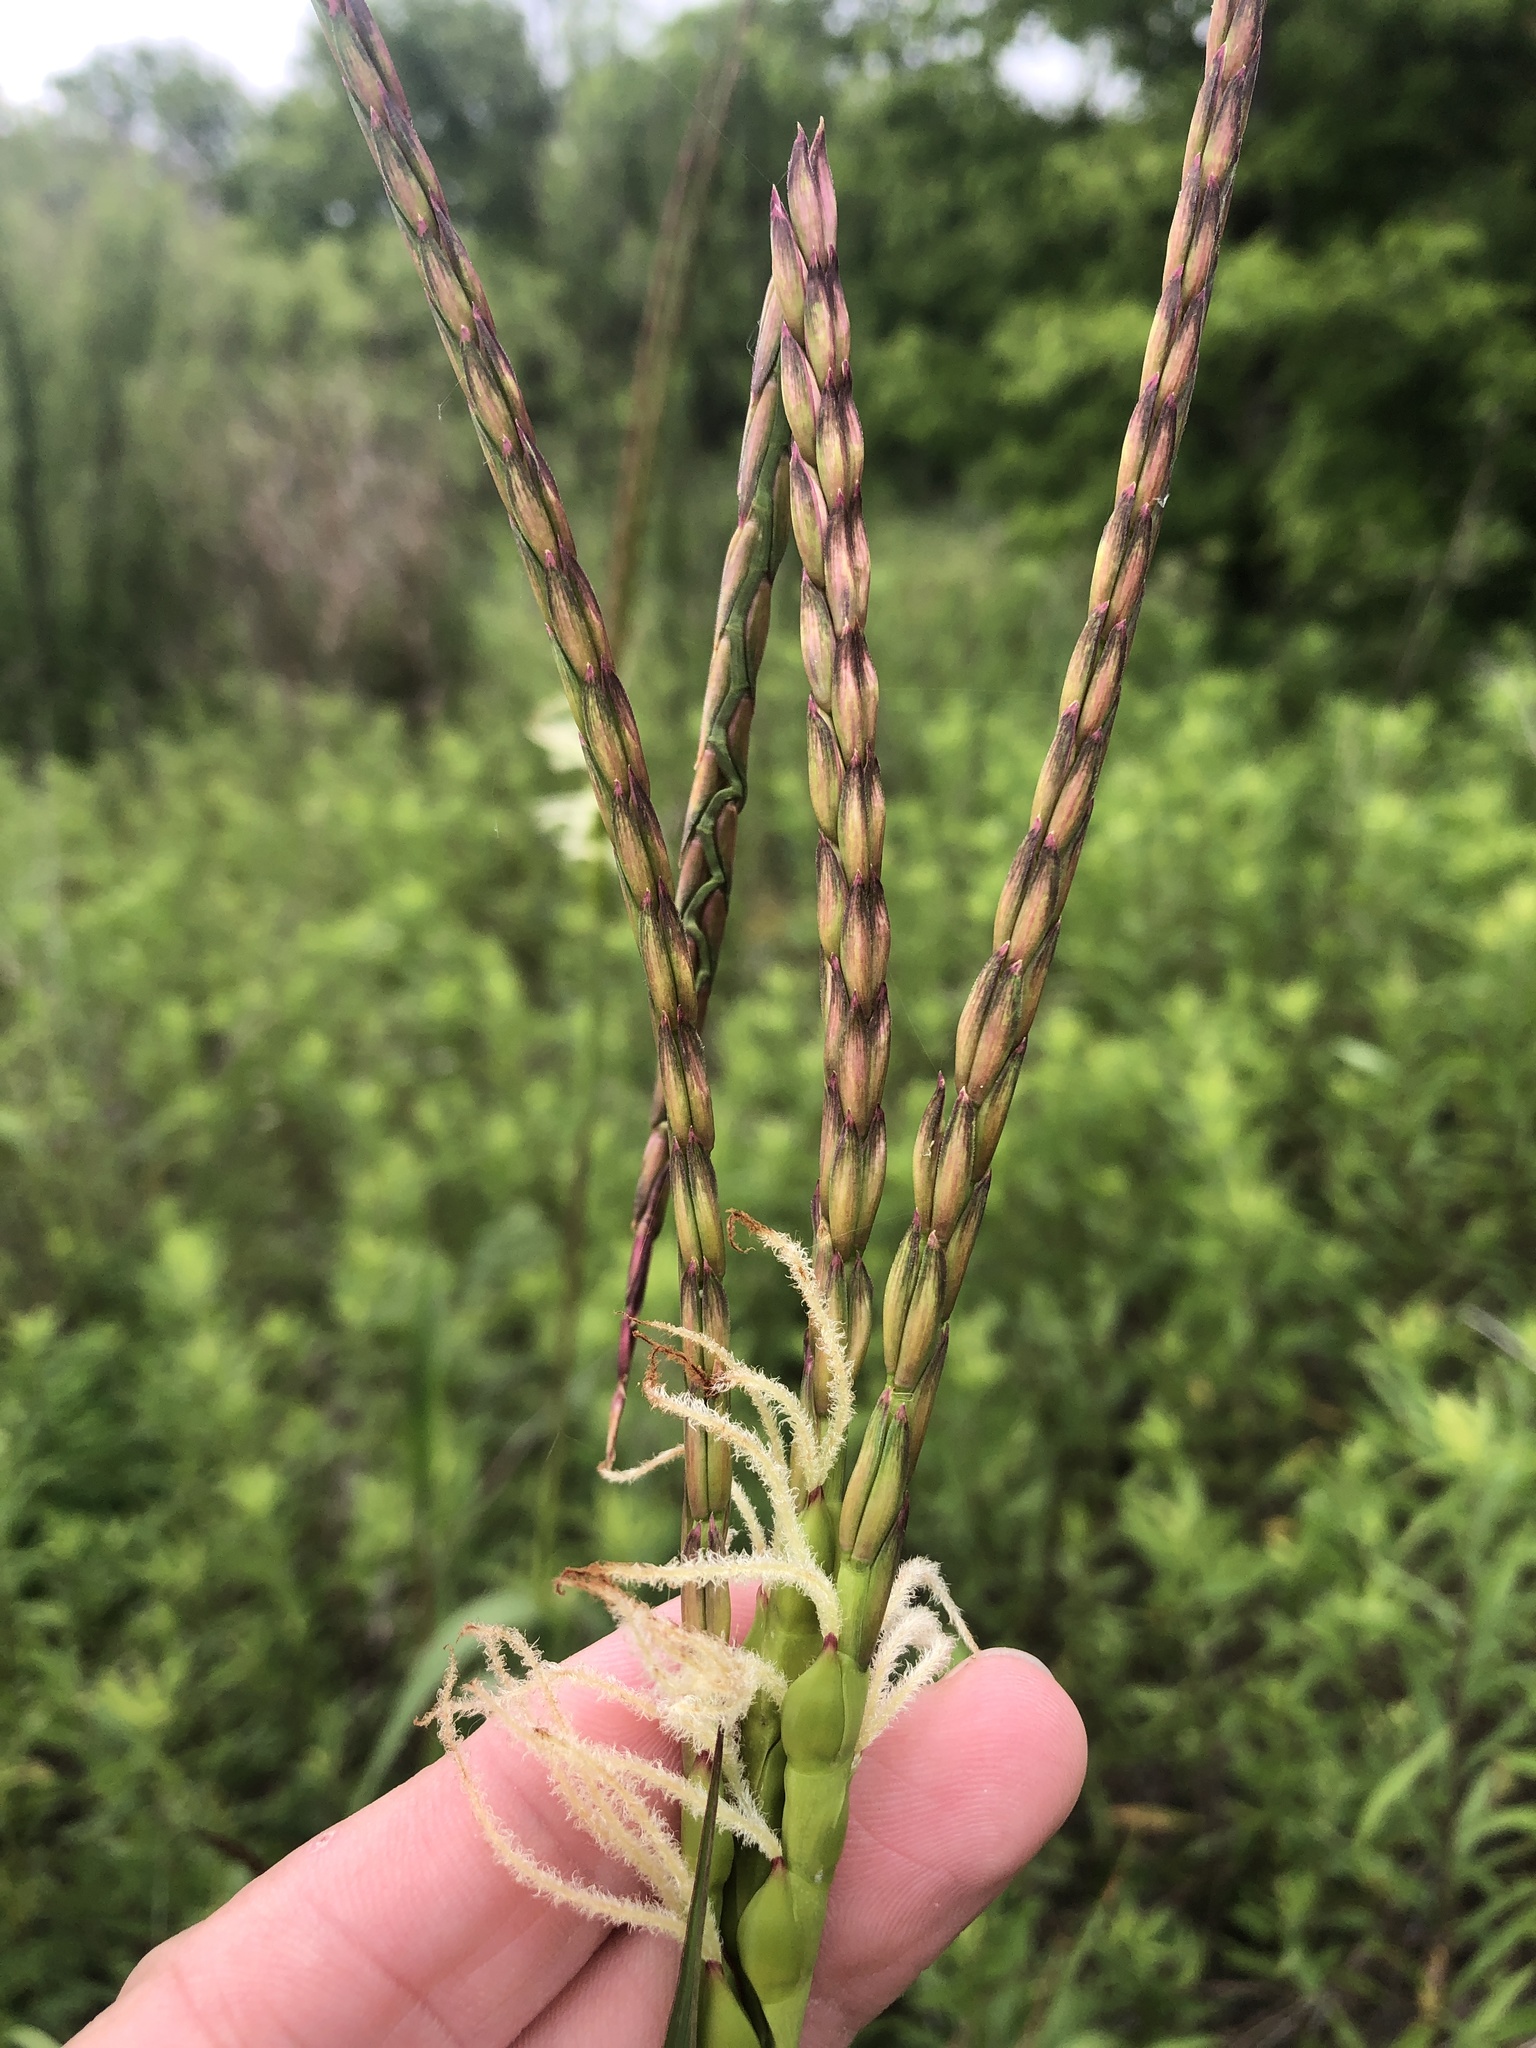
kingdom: Plantae
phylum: Tracheophyta
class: Liliopsida
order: Poales
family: Poaceae
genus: Tripsacum
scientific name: Tripsacum dactyloides
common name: Buffalo-grass
